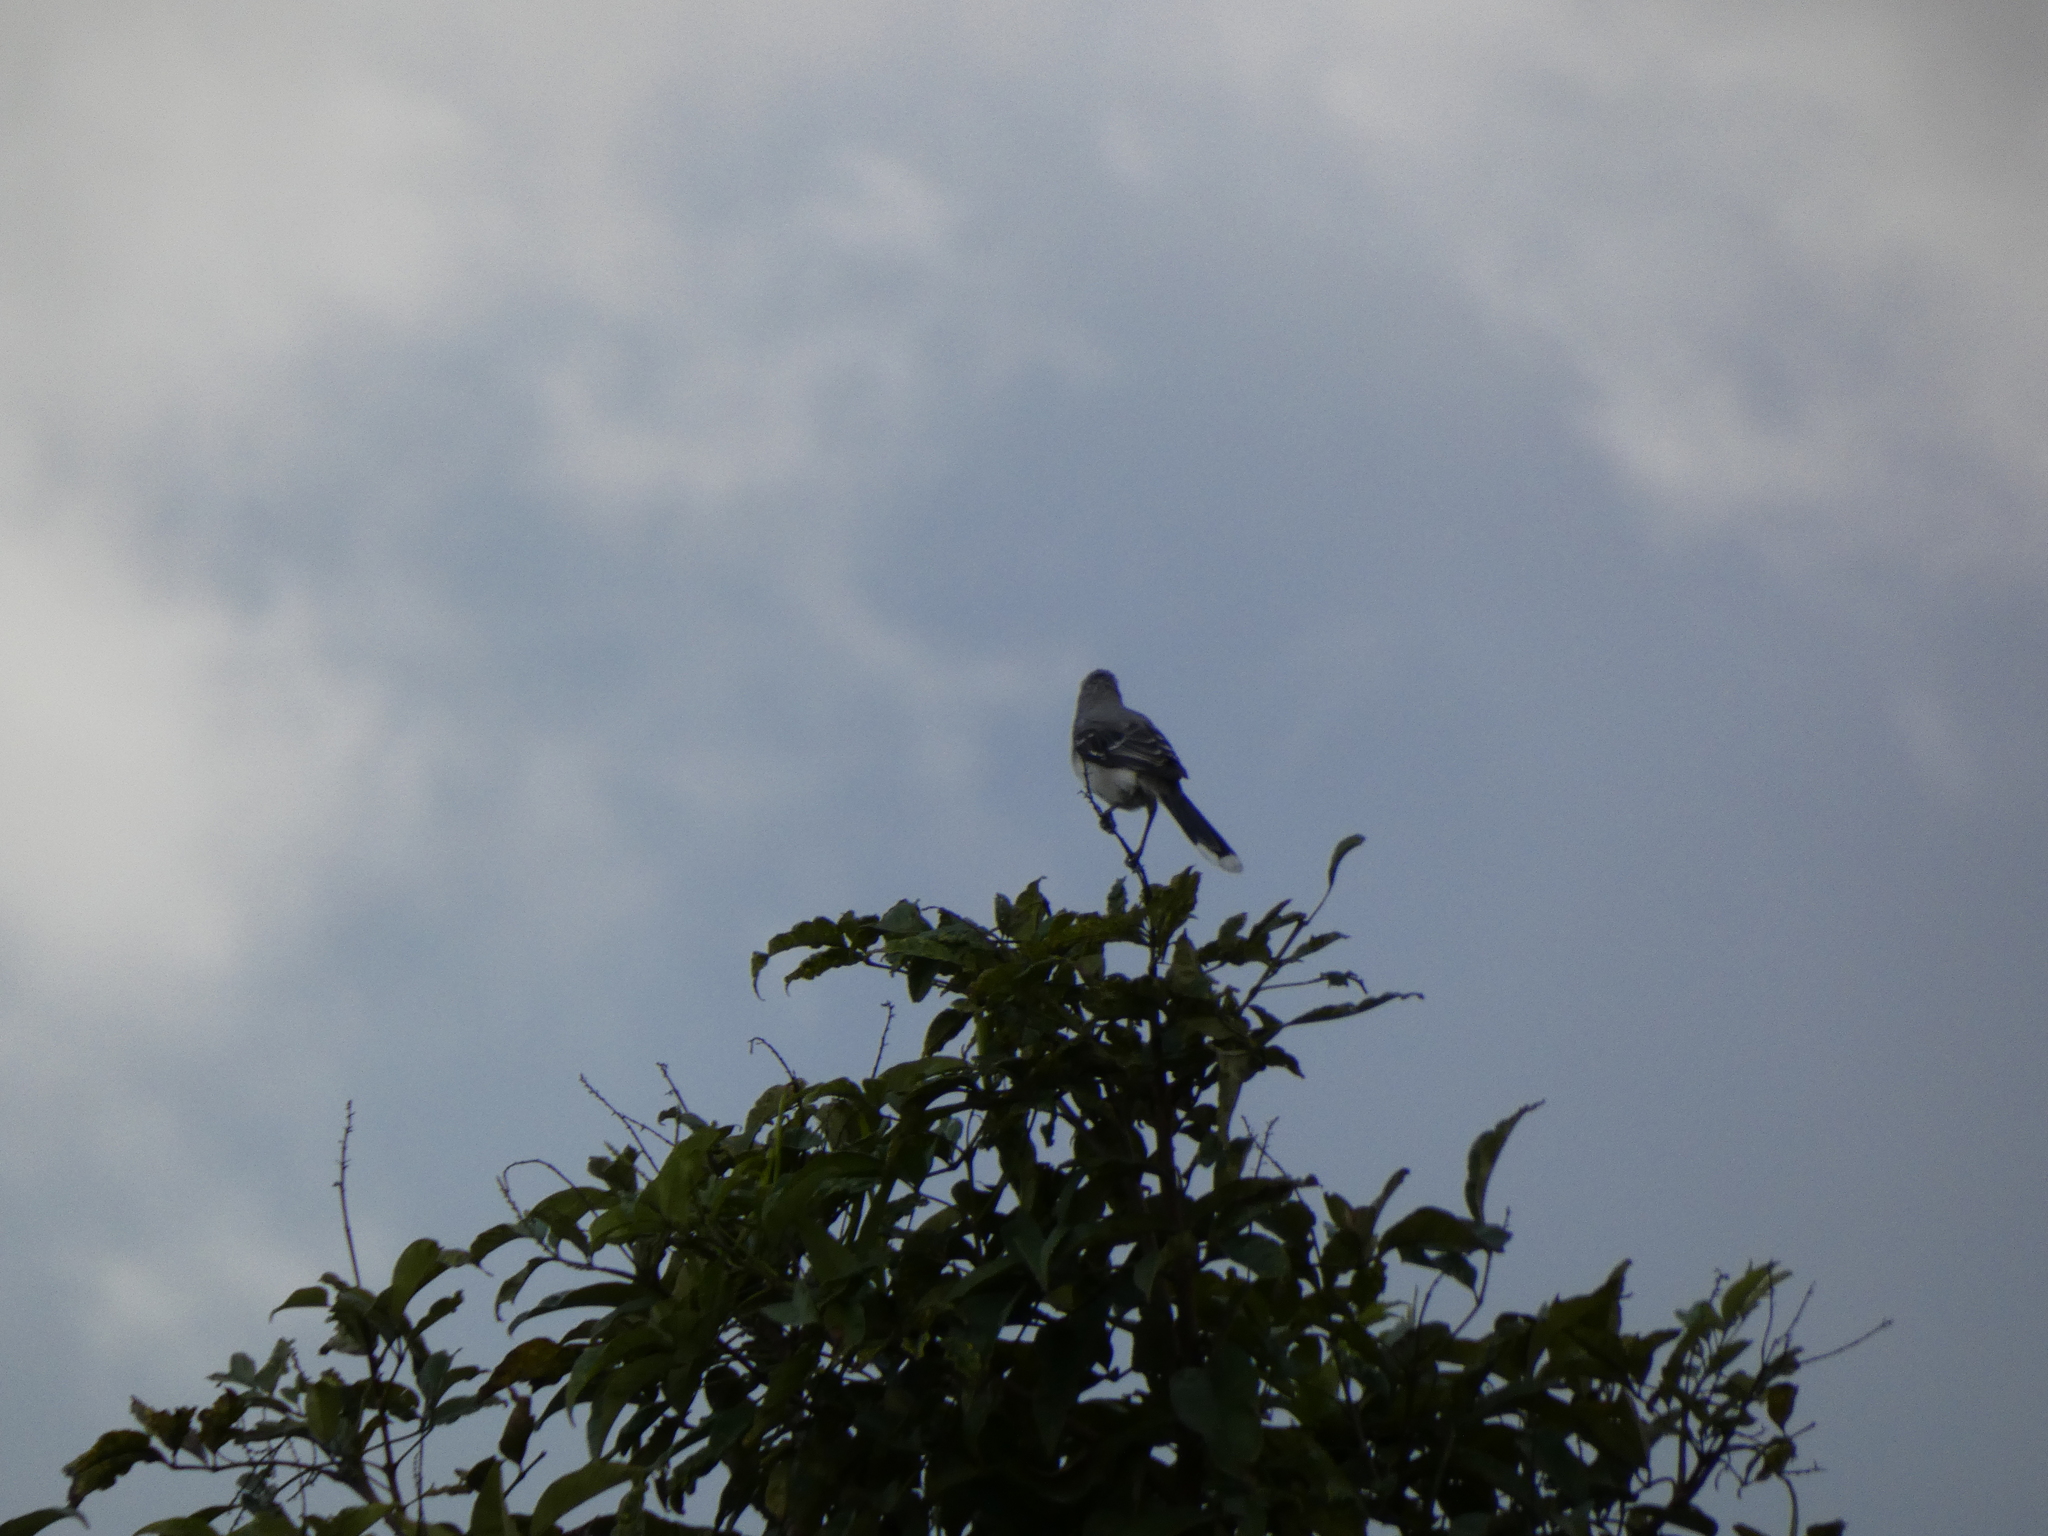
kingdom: Animalia
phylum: Chordata
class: Aves
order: Passeriformes
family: Mimidae
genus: Mimus
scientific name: Mimus gilvus
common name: Tropical mockingbird
